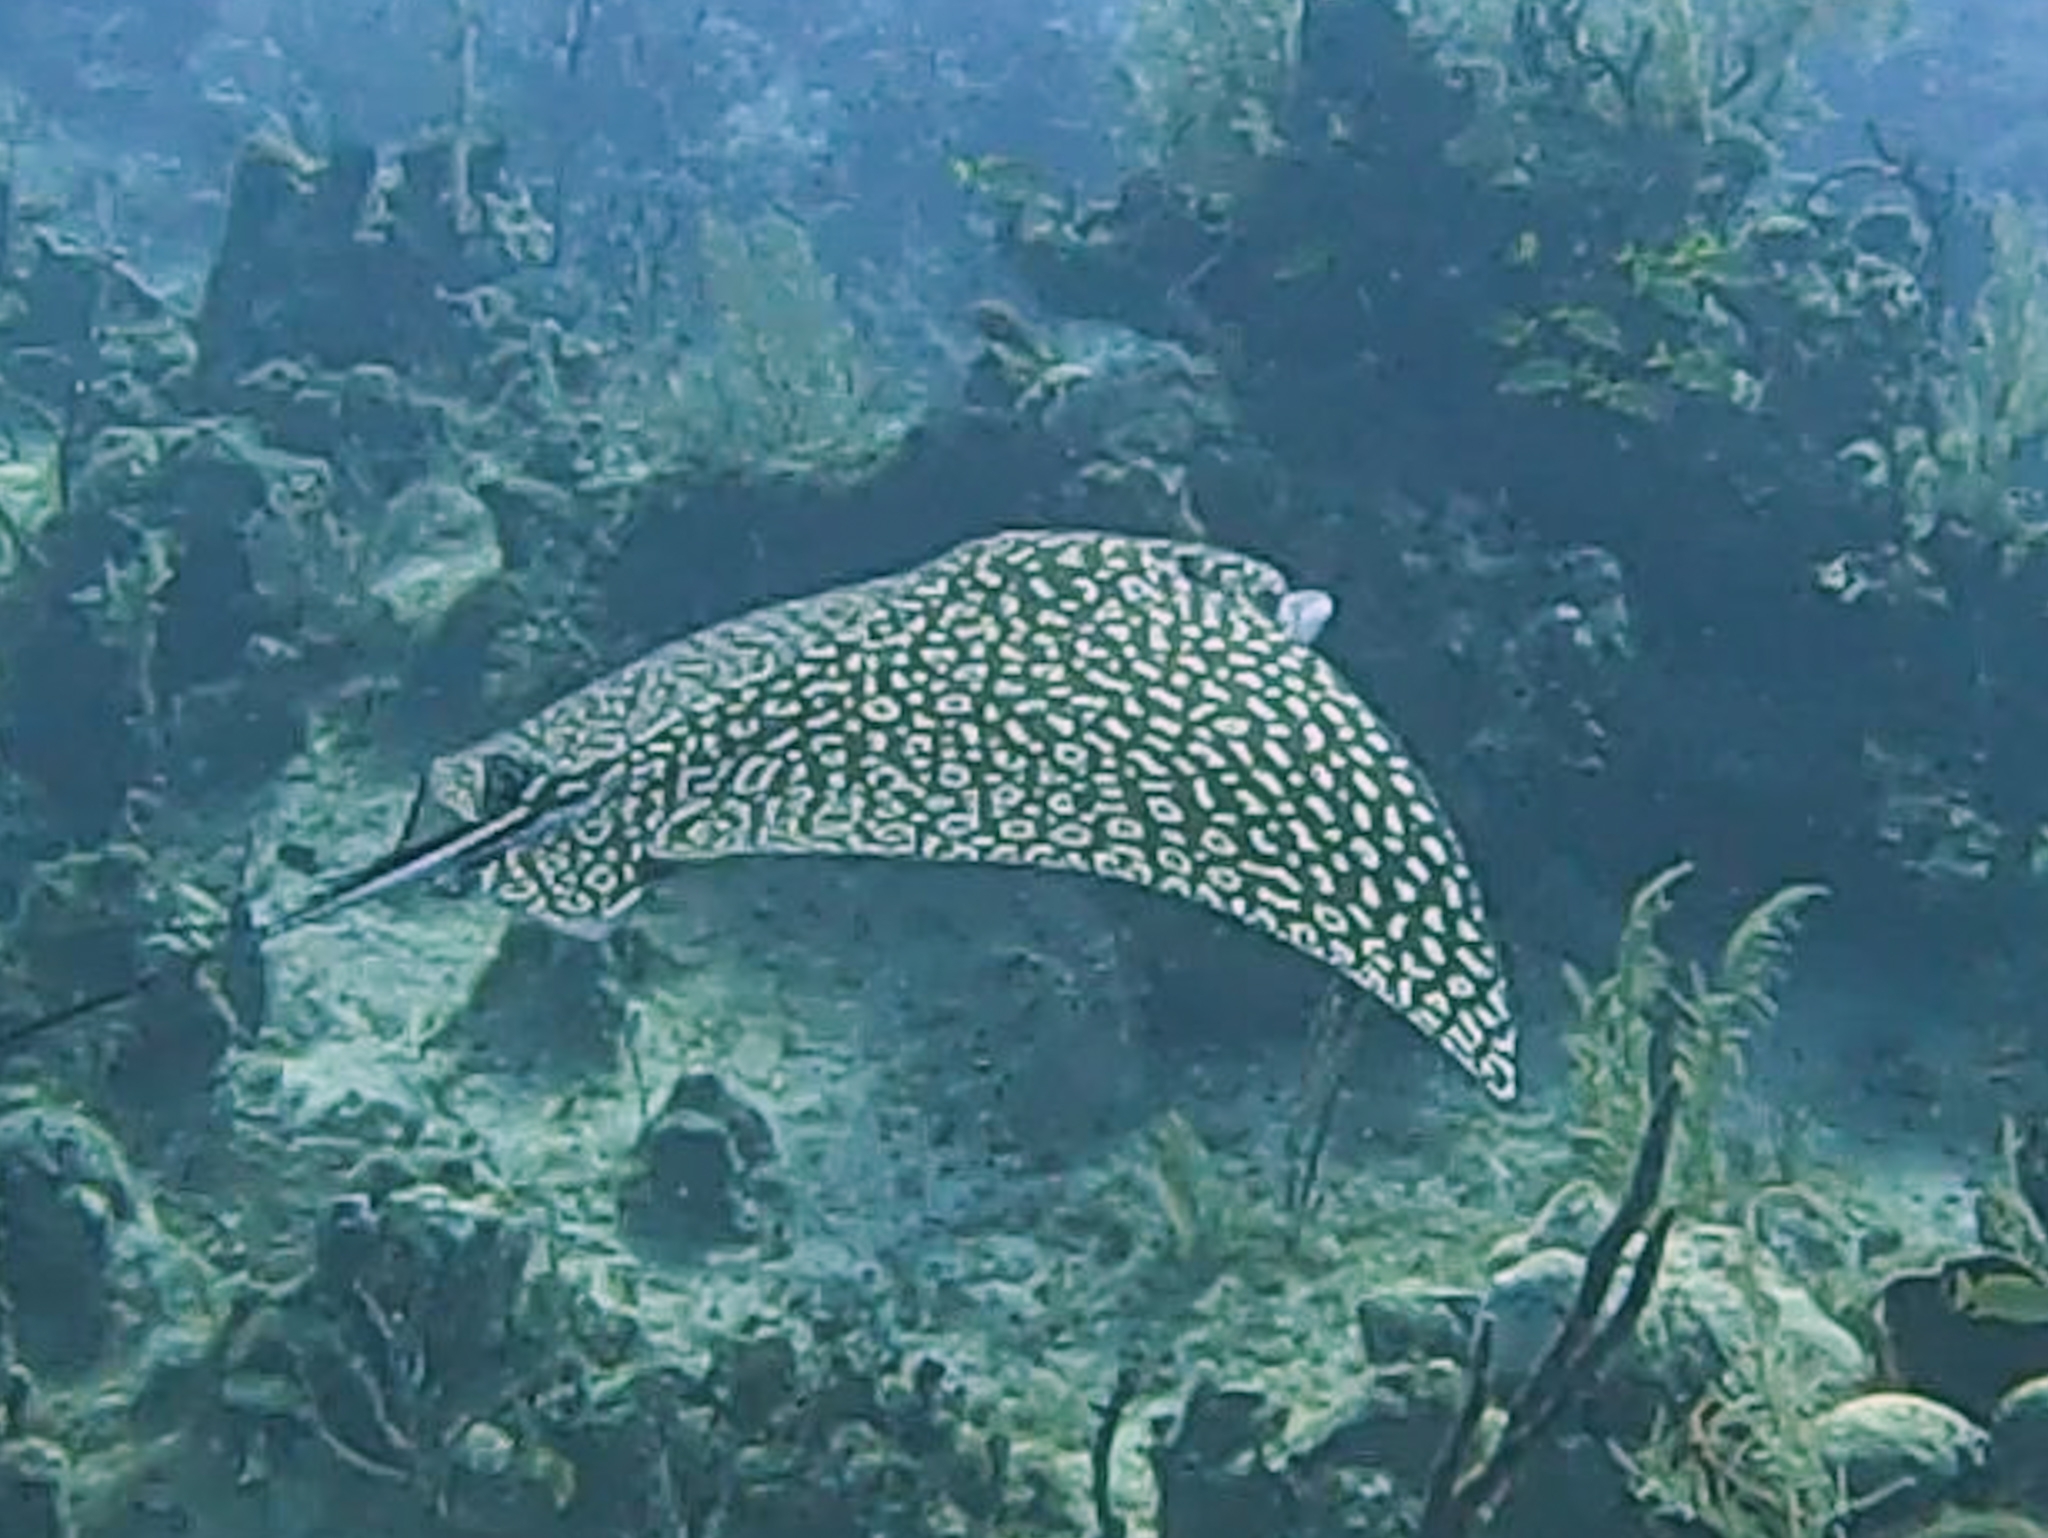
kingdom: Animalia
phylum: Chordata
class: Elasmobranchii
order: Myliobatiformes
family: Myliobatidae
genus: Aetobatus
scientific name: Aetobatus narinari
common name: Spotted eagle ray
